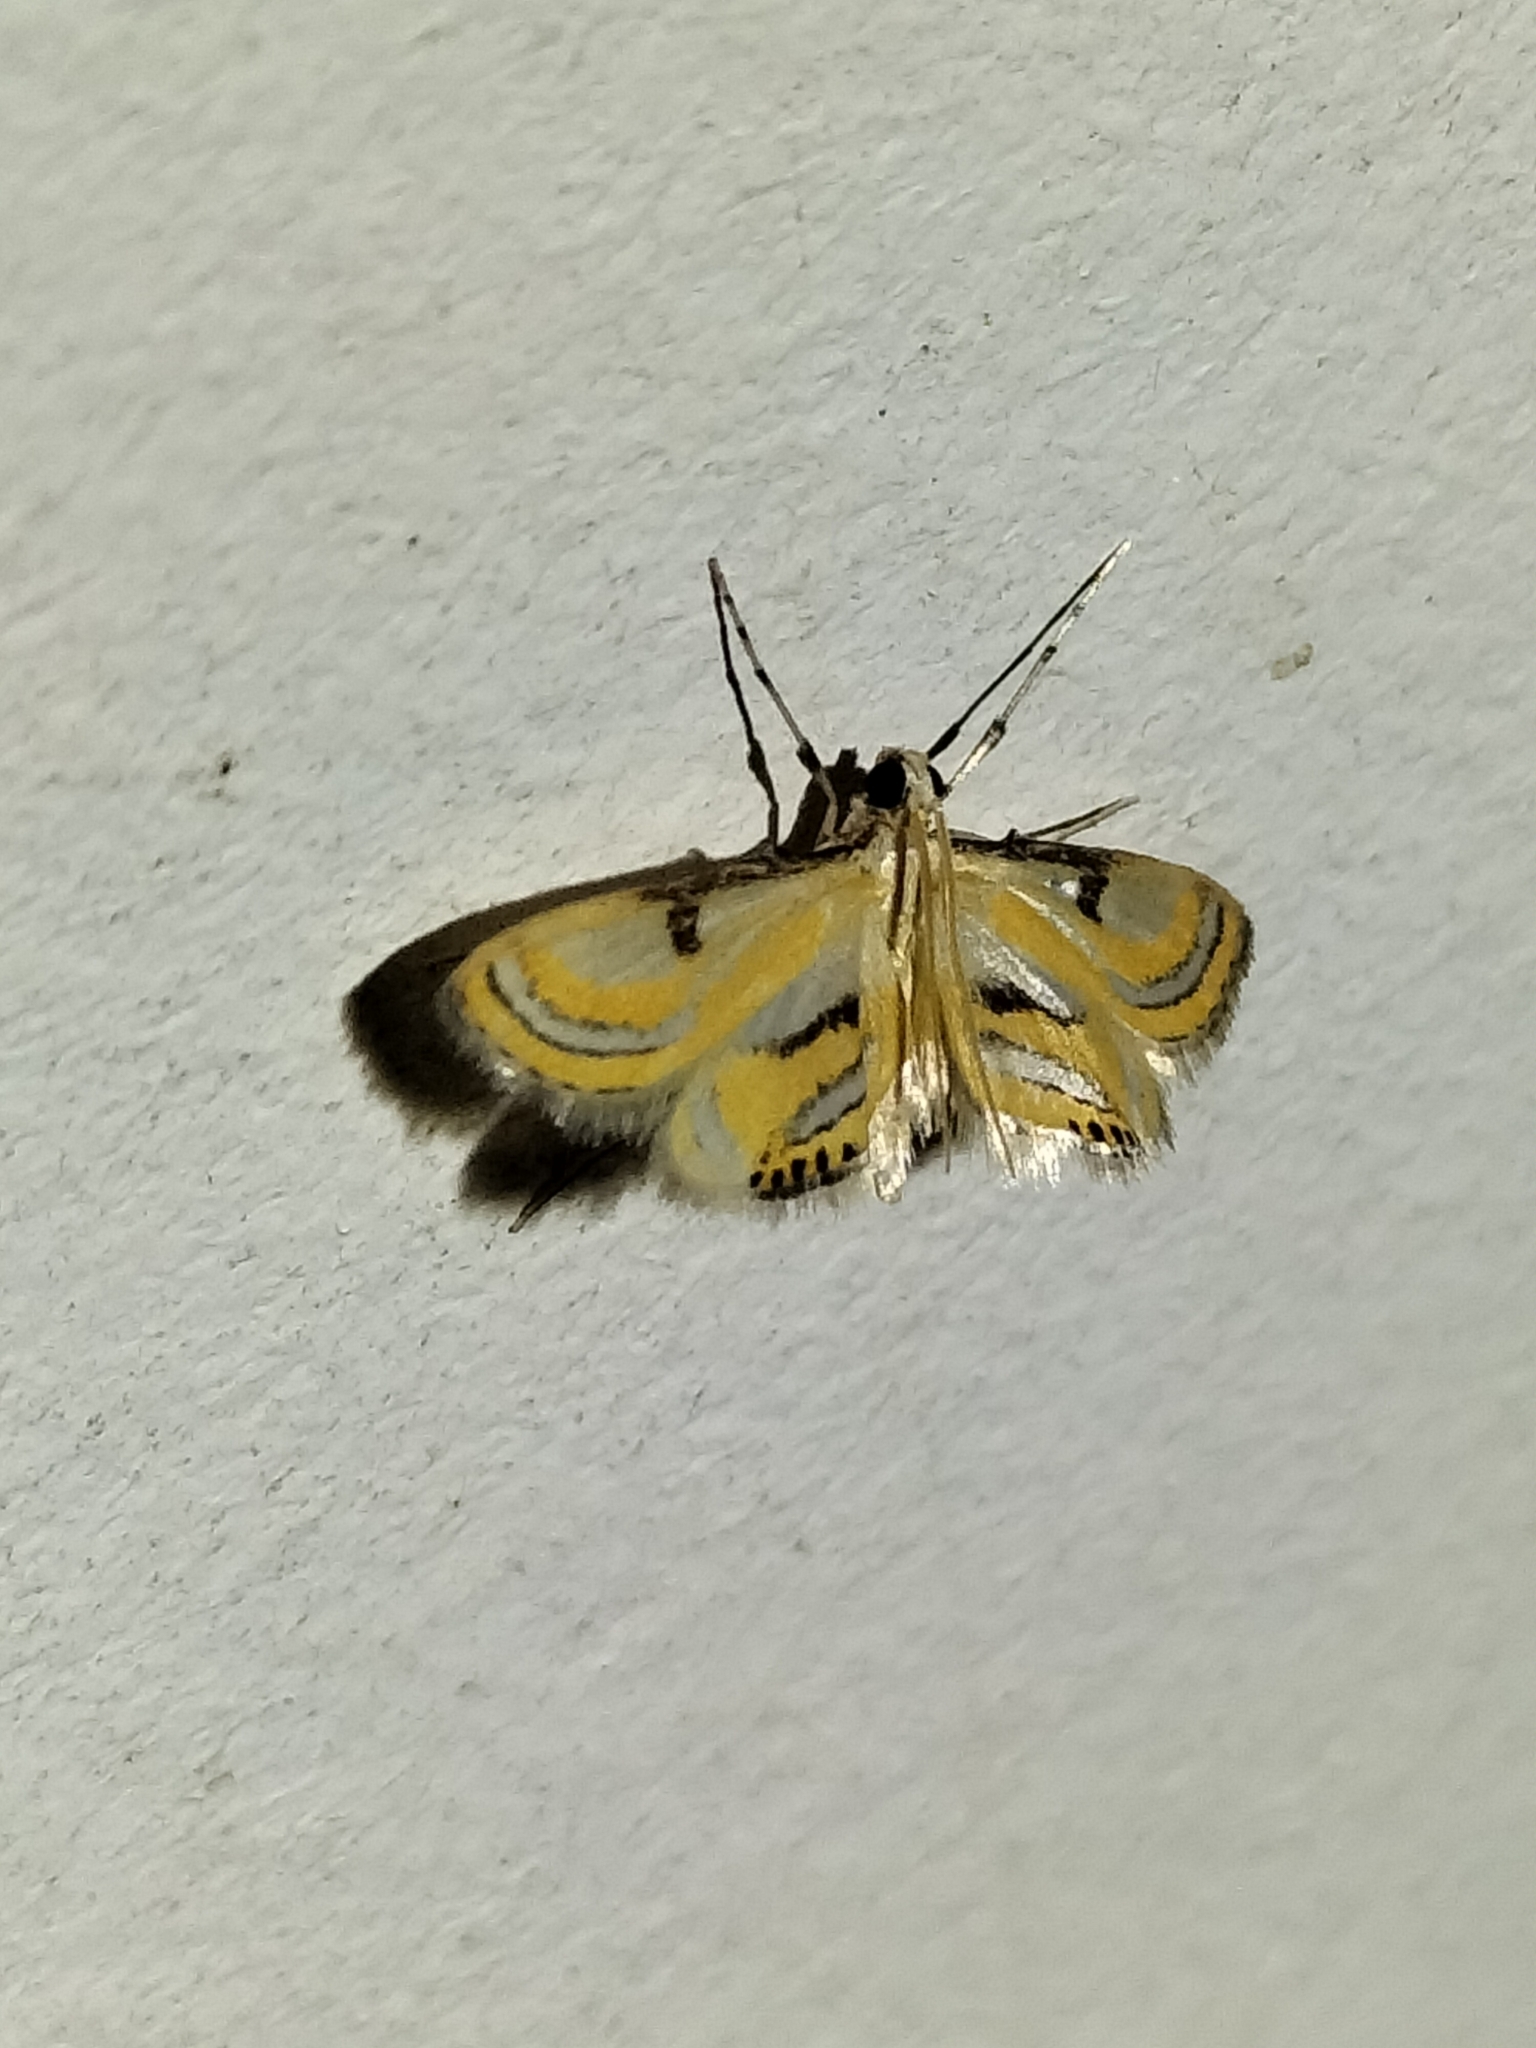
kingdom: Animalia
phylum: Arthropoda
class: Insecta
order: Lepidoptera
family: Crambidae
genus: Tetrernia
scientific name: Tetrernia teminitis
